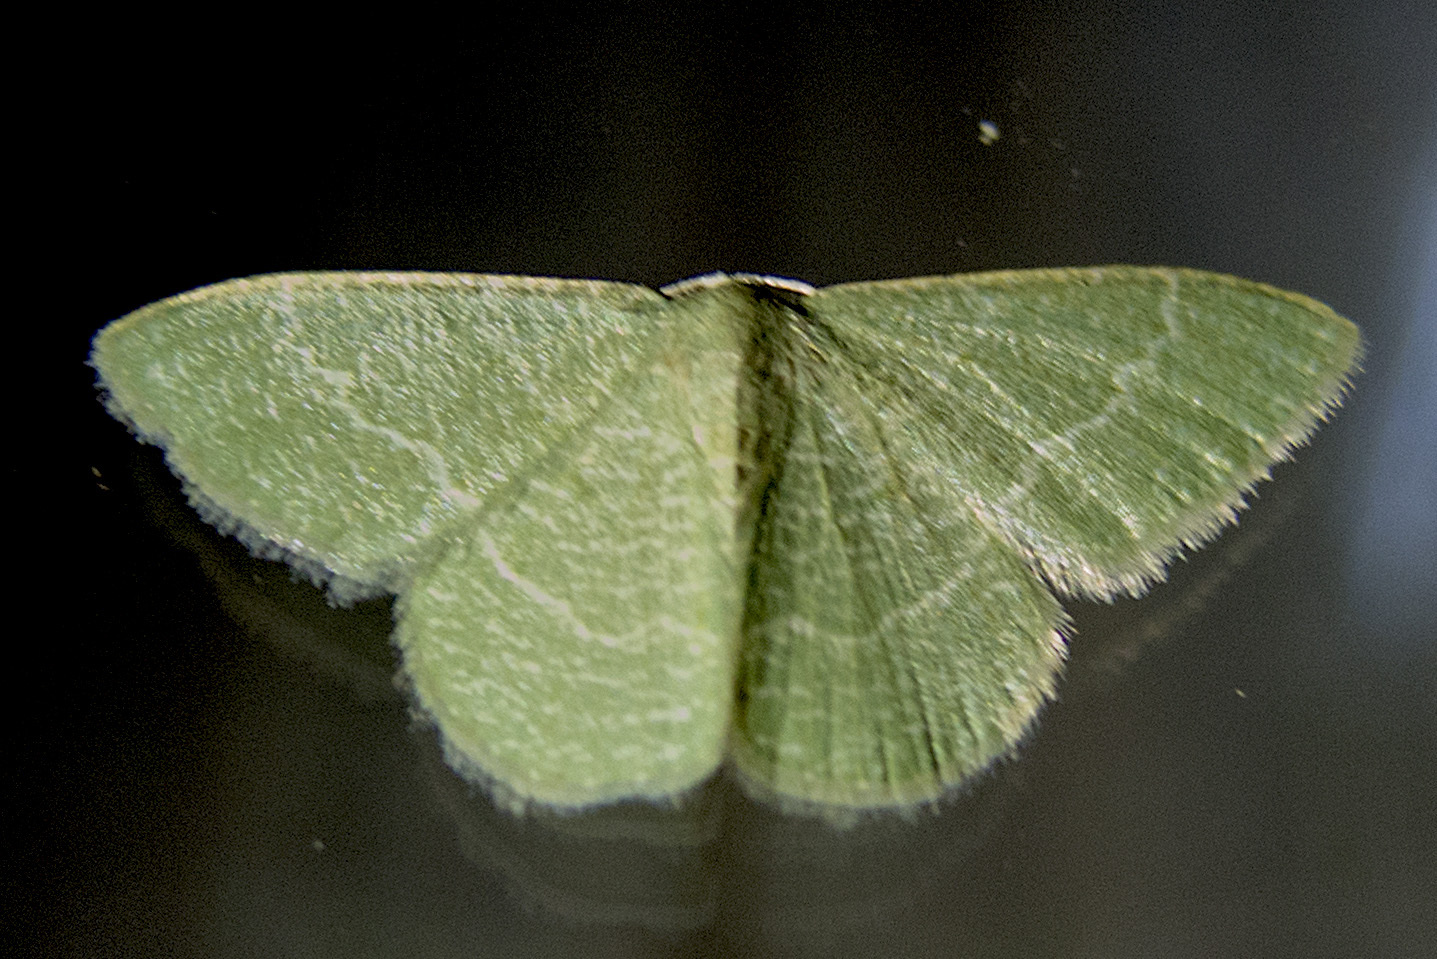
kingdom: Animalia
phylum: Arthropoda
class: Insecta
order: Lepidoptera
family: Geometridae
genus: Chlorissa
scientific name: Chlorissa etruscaria
